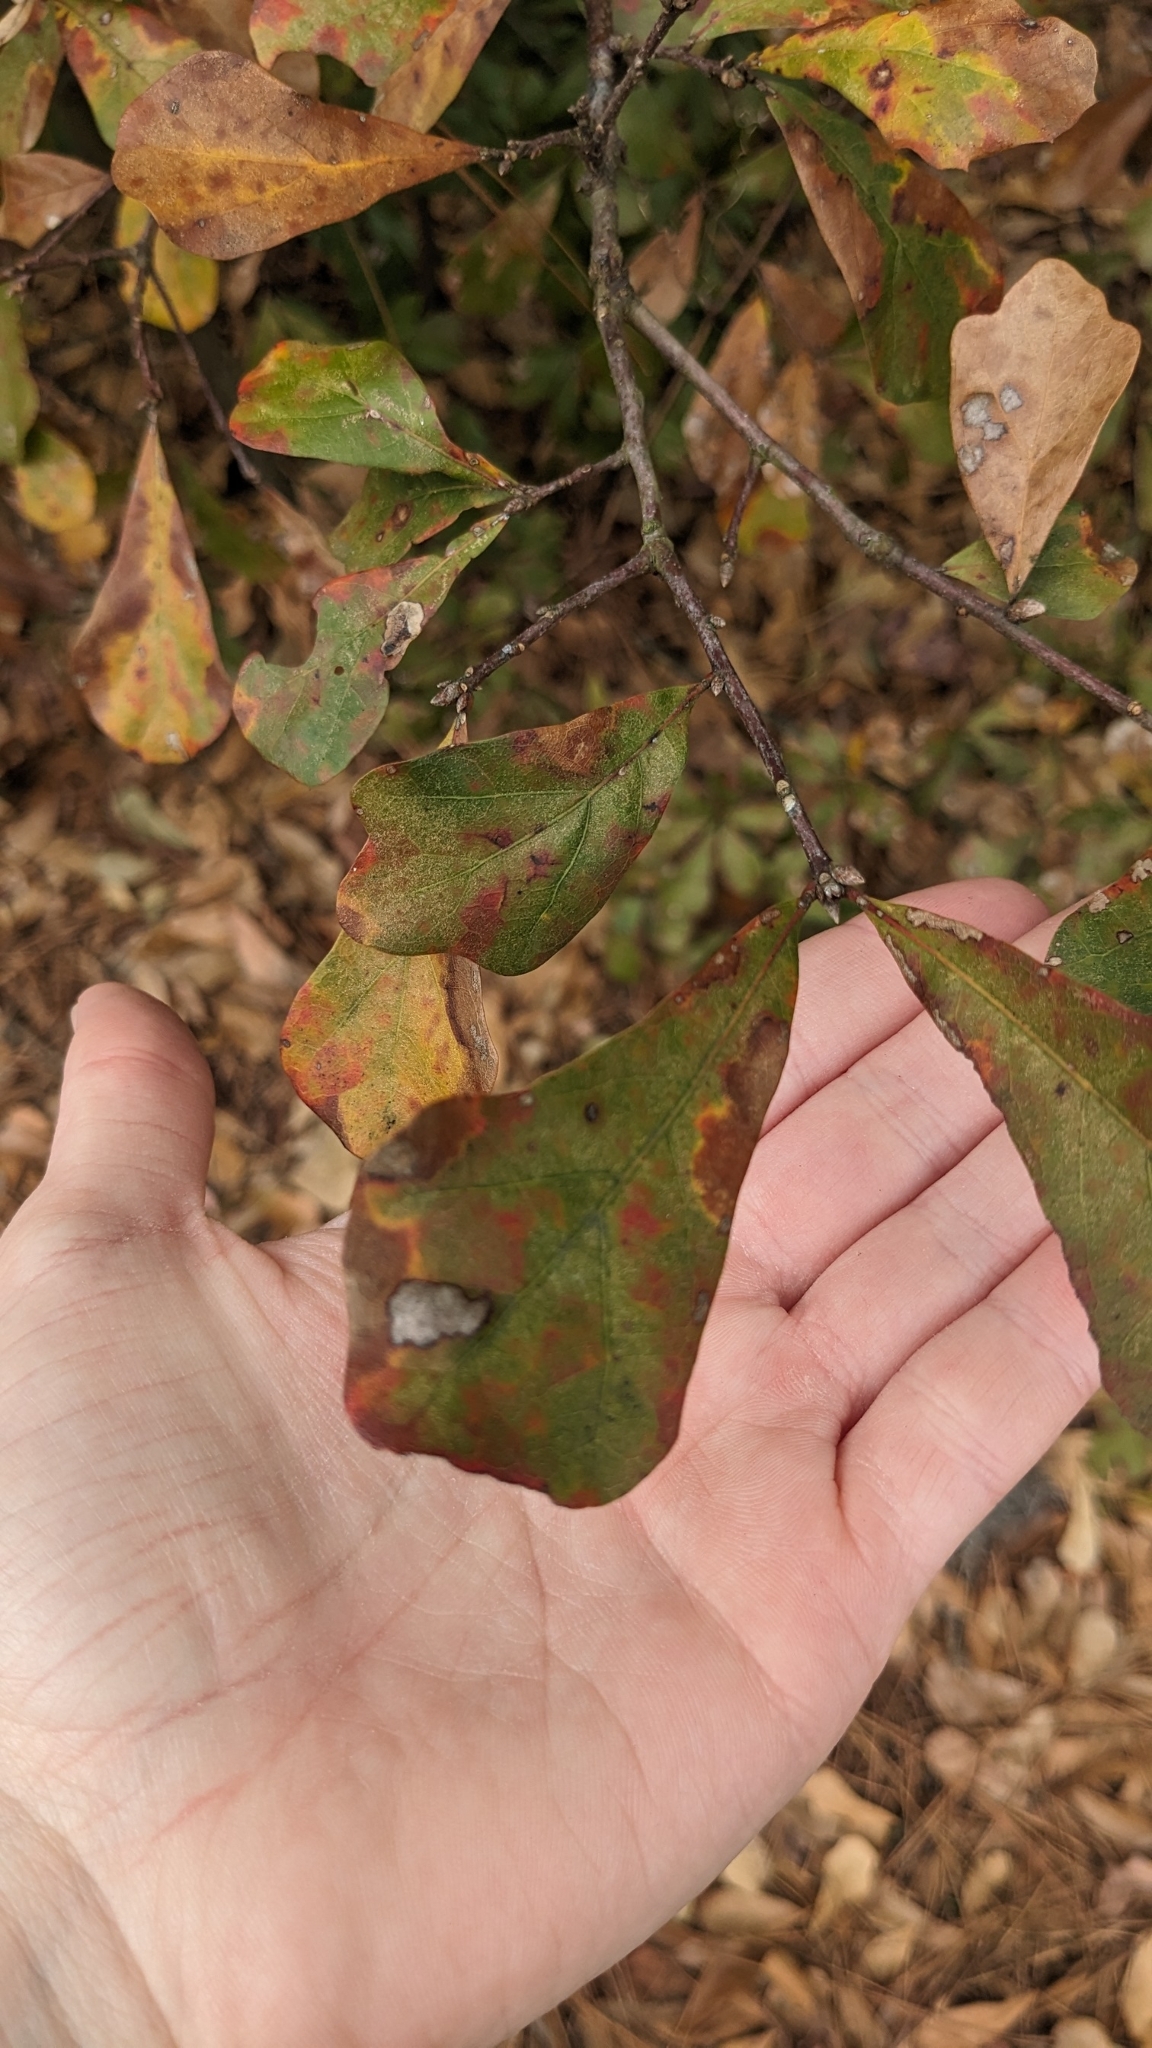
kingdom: Plantae
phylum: Tracheophyta
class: Magnoliopsida
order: Fagales
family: Fagaceae
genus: Quercus
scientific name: Quercus nigra
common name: Water oak
